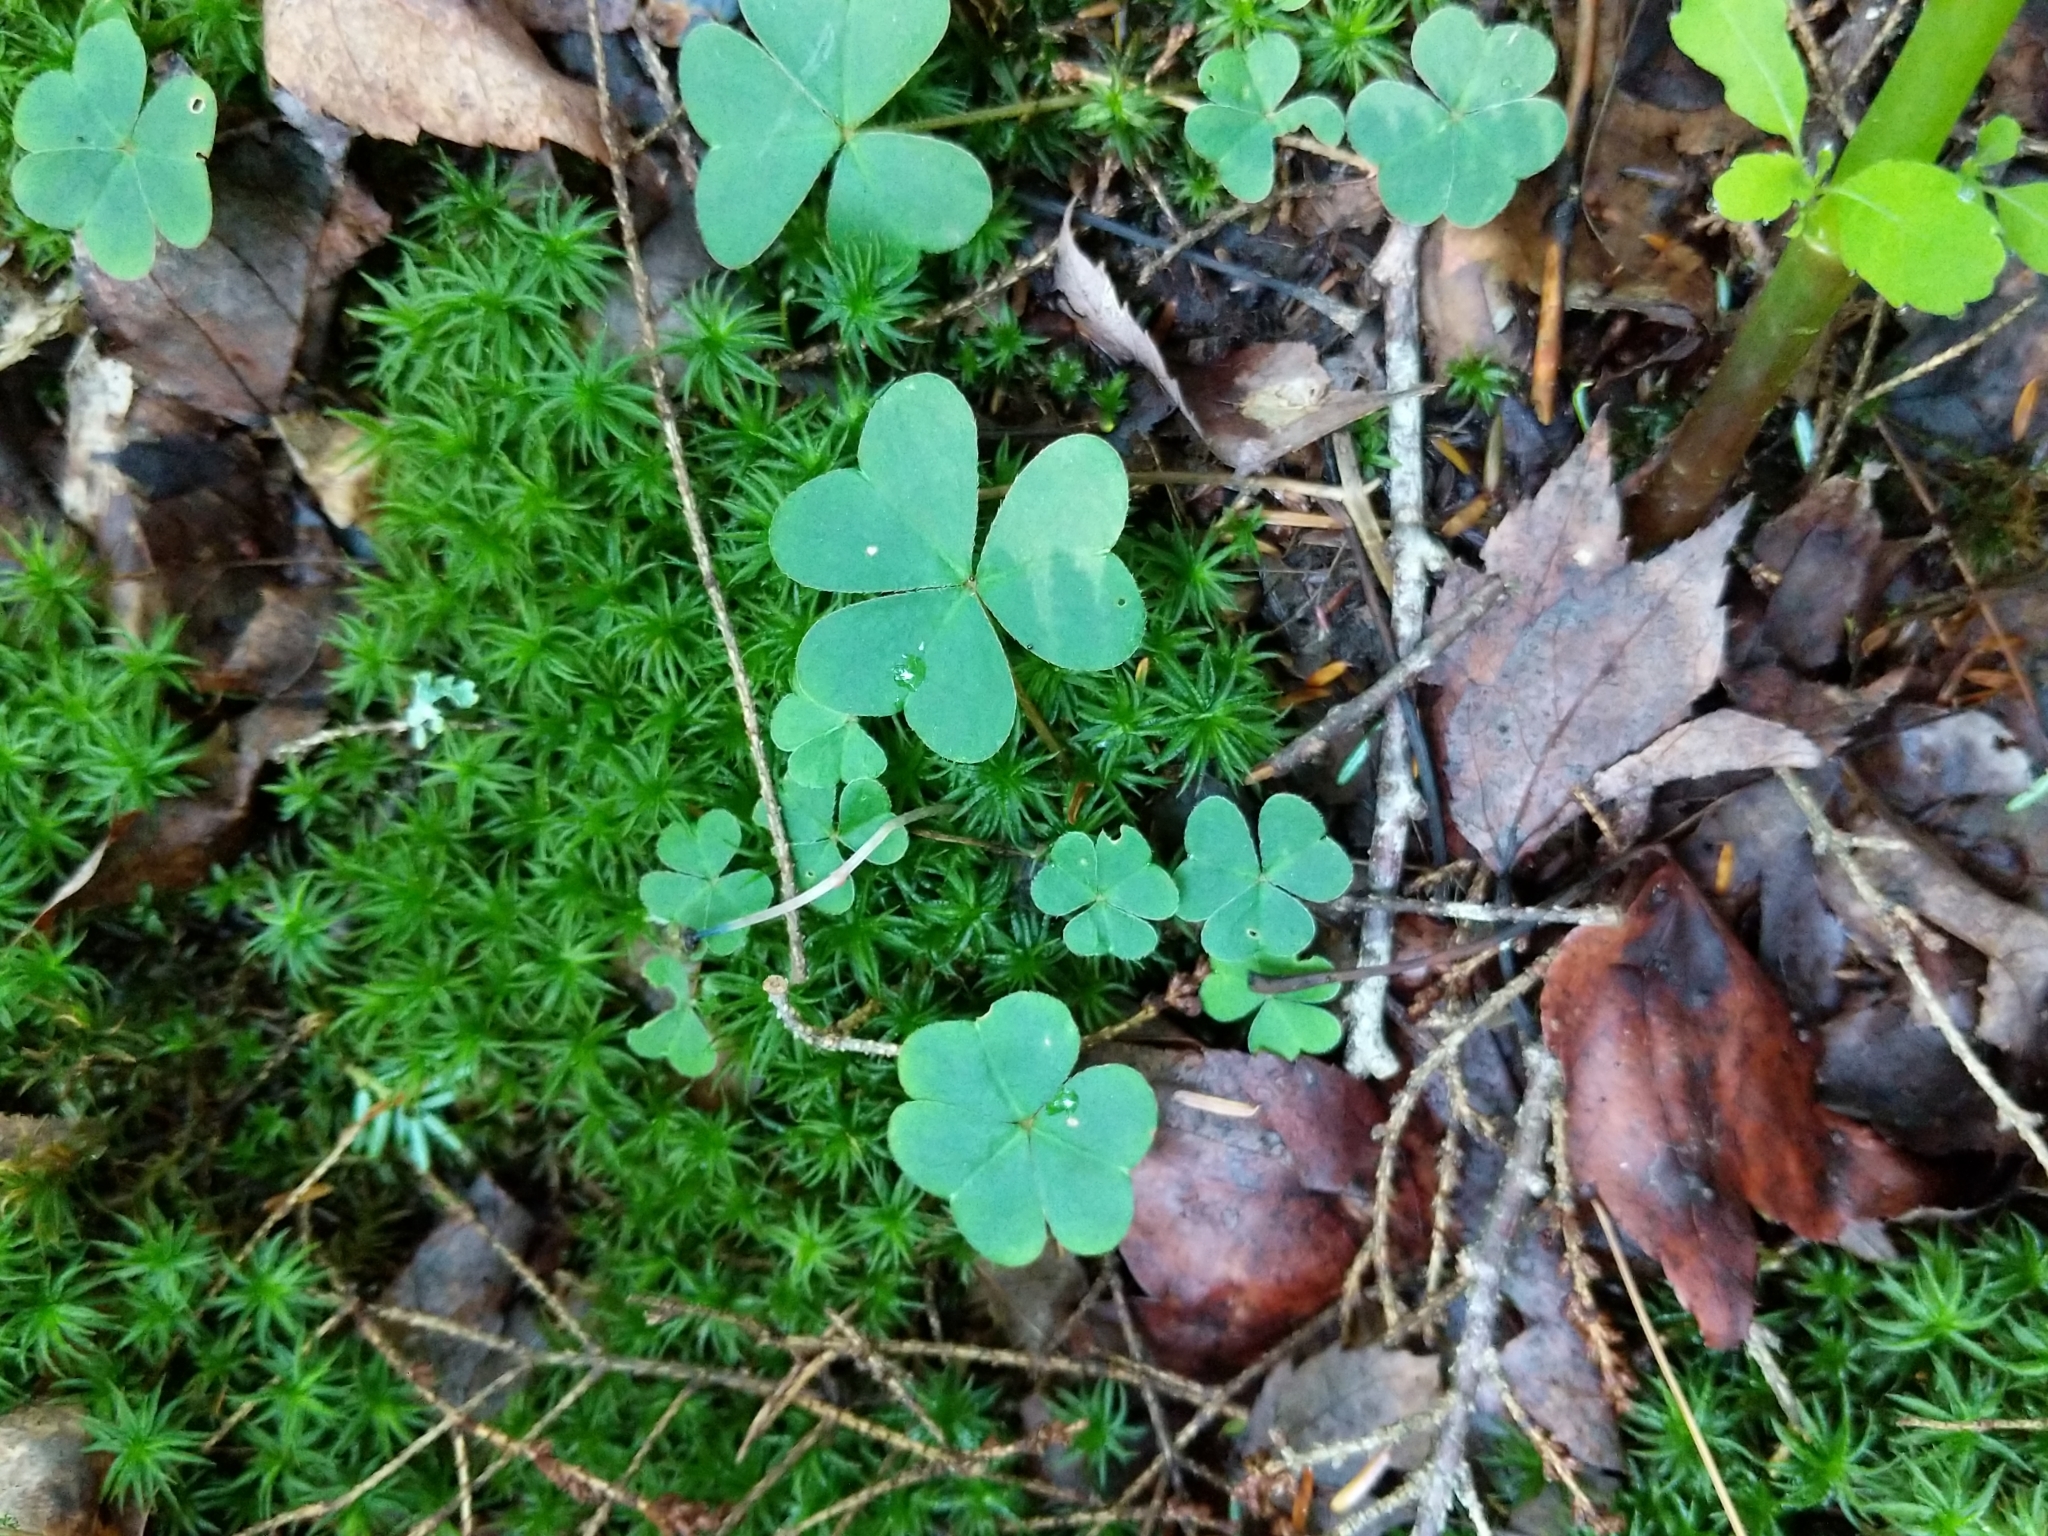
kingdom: Plantae
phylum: Tracheophyta
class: Magnoliopsida
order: Oxalidales
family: Oxalidaceae
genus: Oxalis
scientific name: Oxalis montana
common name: American wood-sorrel
